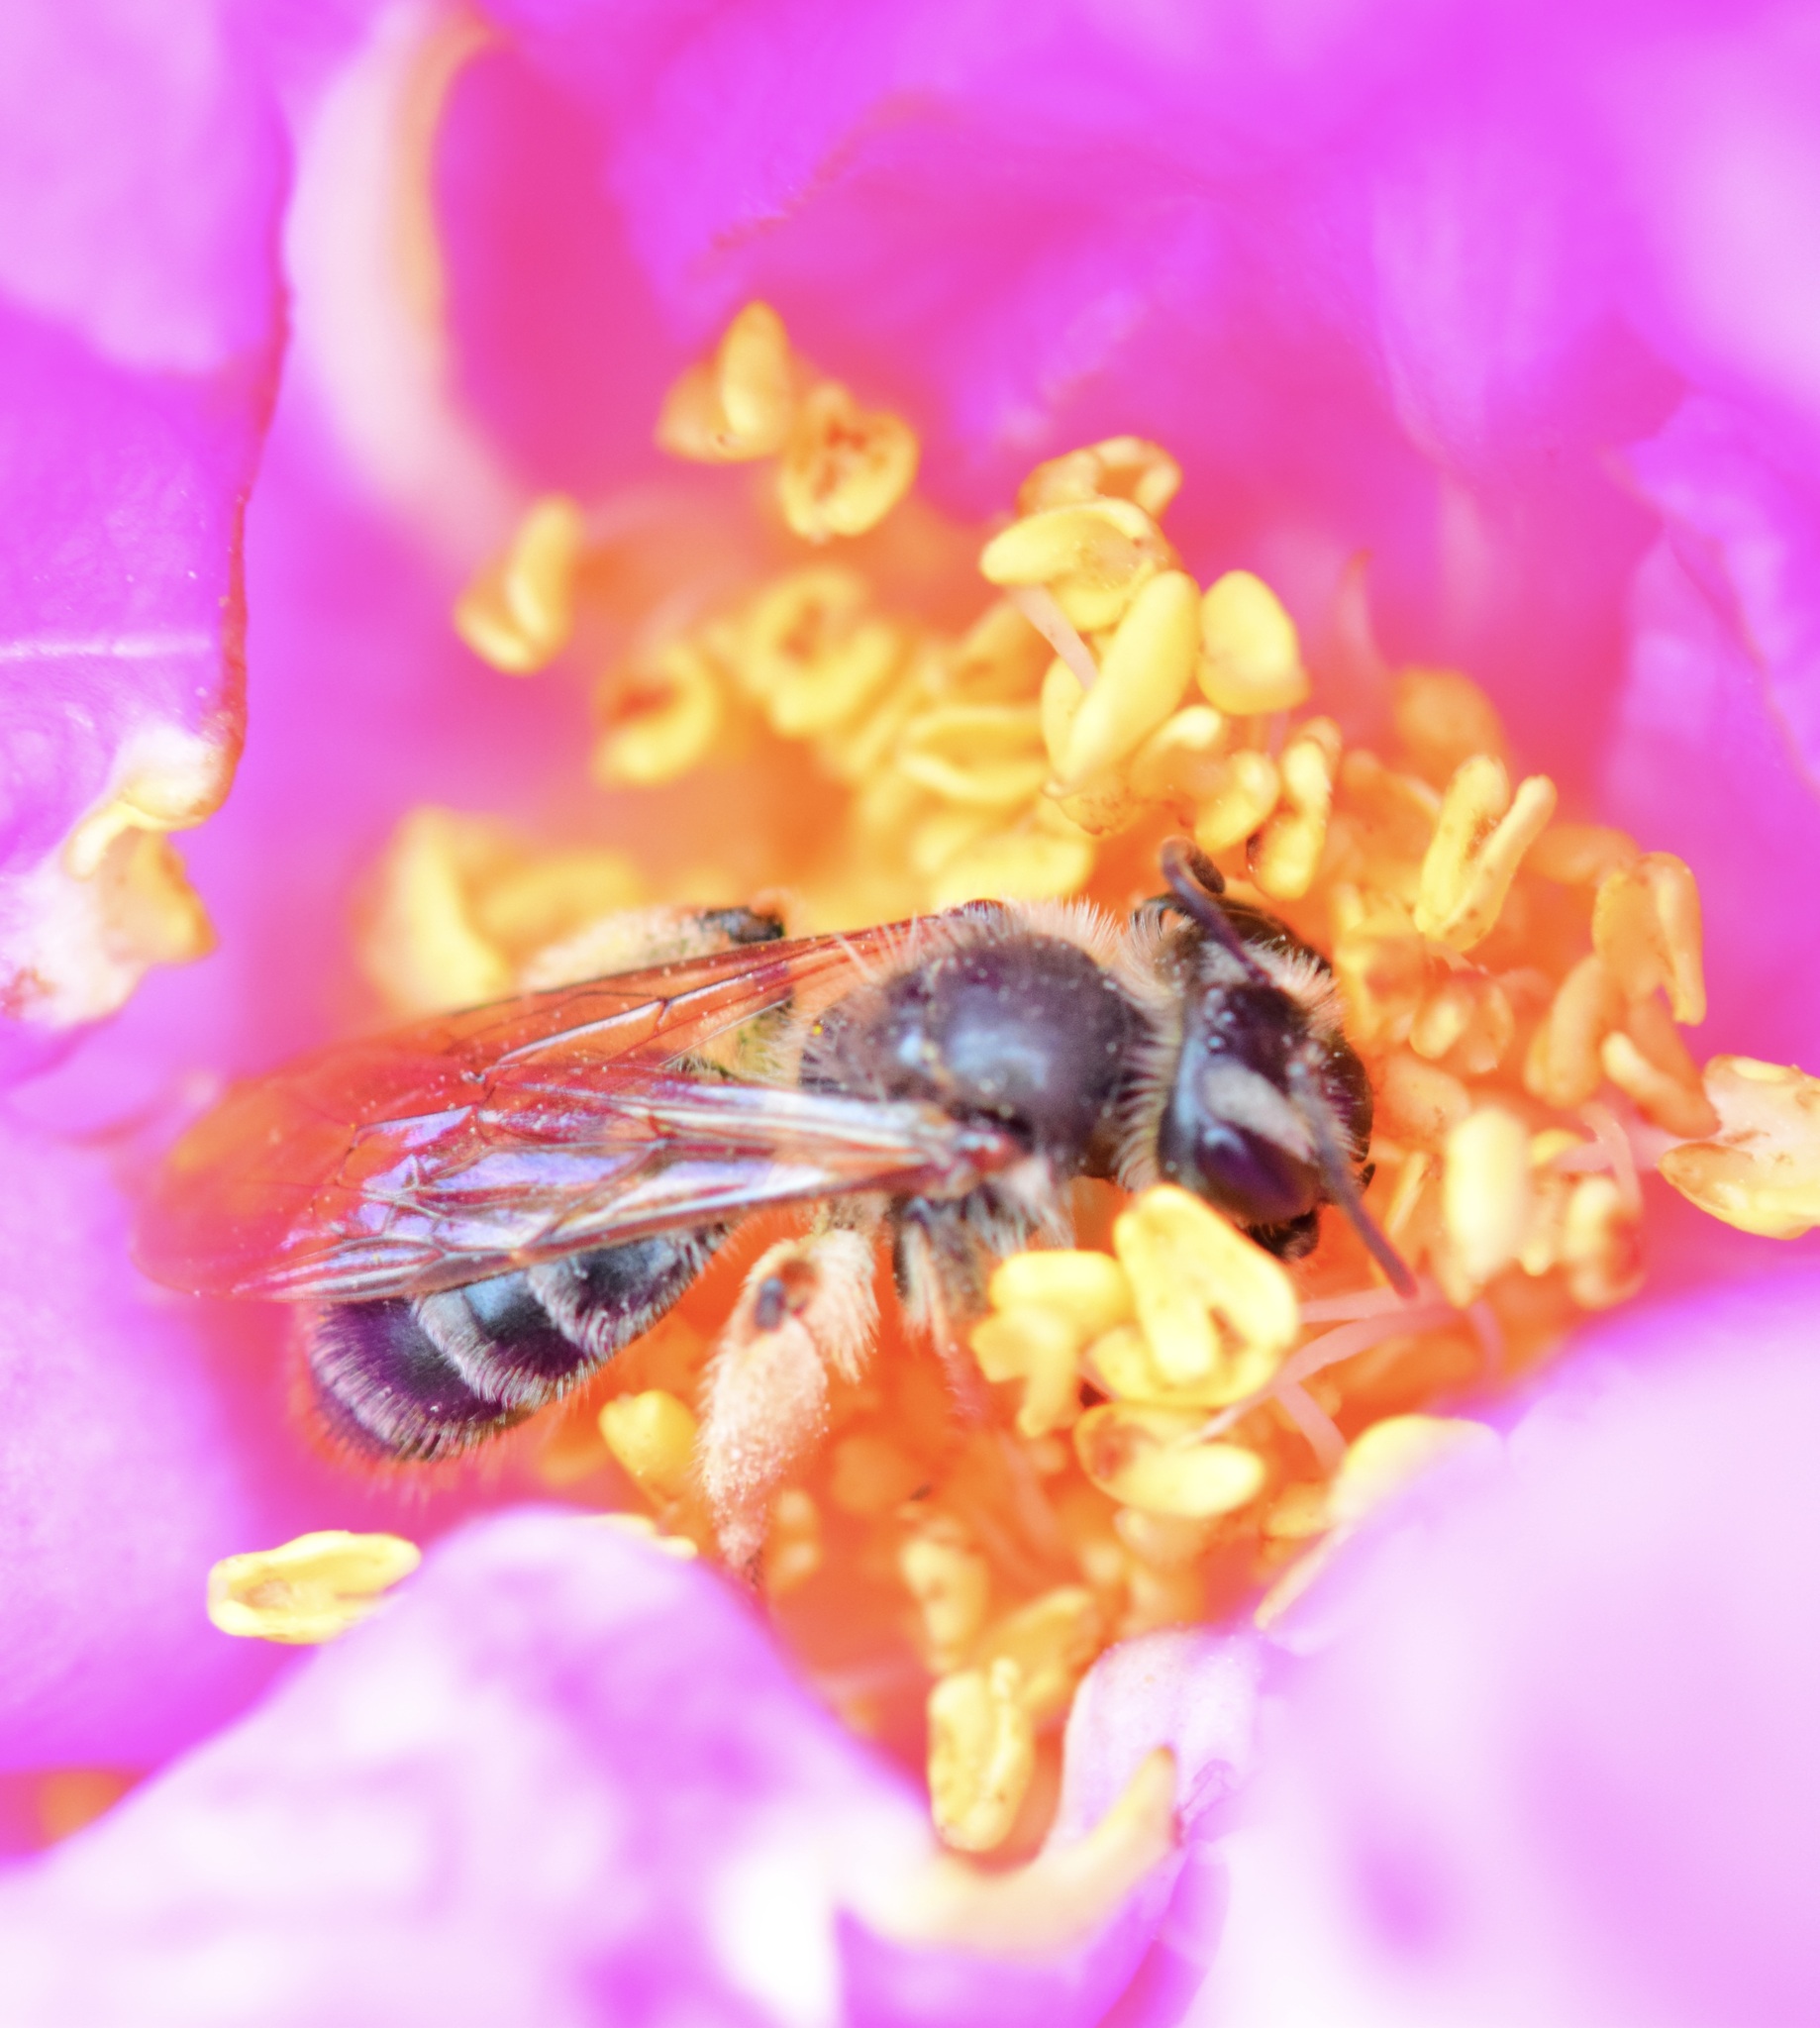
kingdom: Animalia
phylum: Arthropoda
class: Insecta
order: Hymenoptera
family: Andrenidae
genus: Andrena
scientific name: Andrena thaspii
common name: Parsnip miner bee
